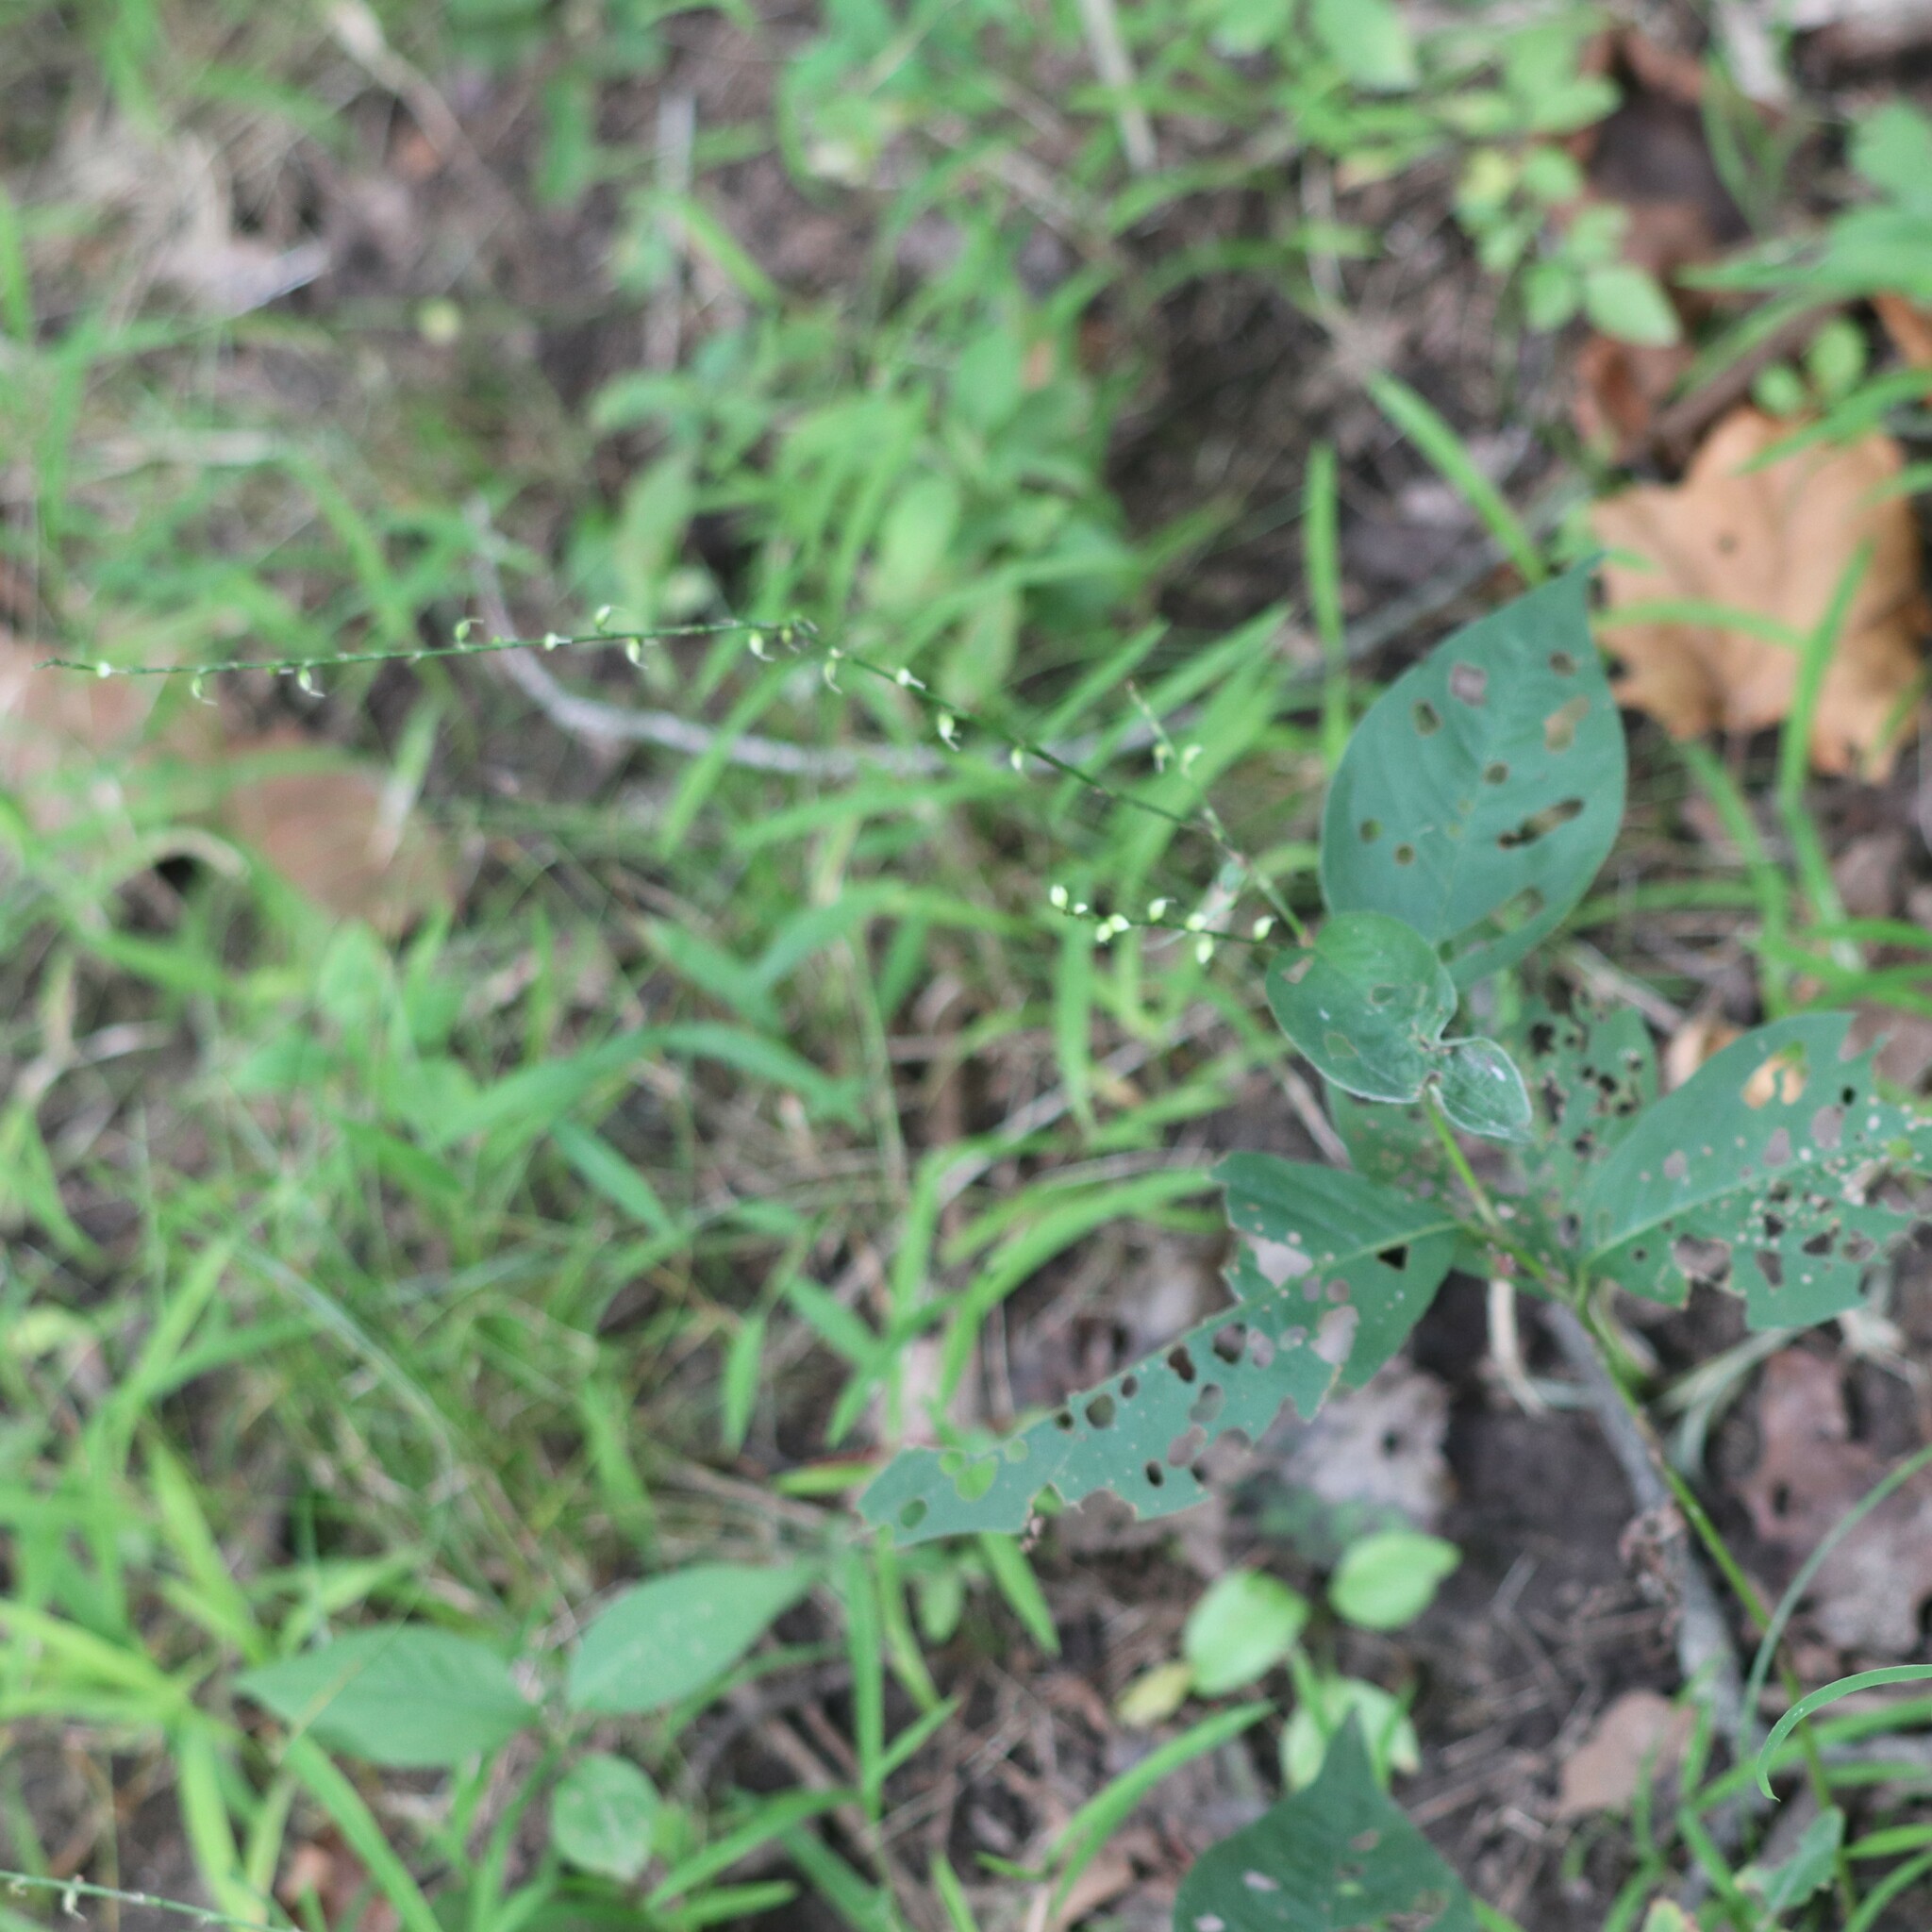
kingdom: Plantae
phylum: Tracheophyta
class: Magnoliopsida
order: Caryophyllales
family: Polygonaceae
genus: Persicaria
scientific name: Persicaria virginiana
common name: Jumpseed
